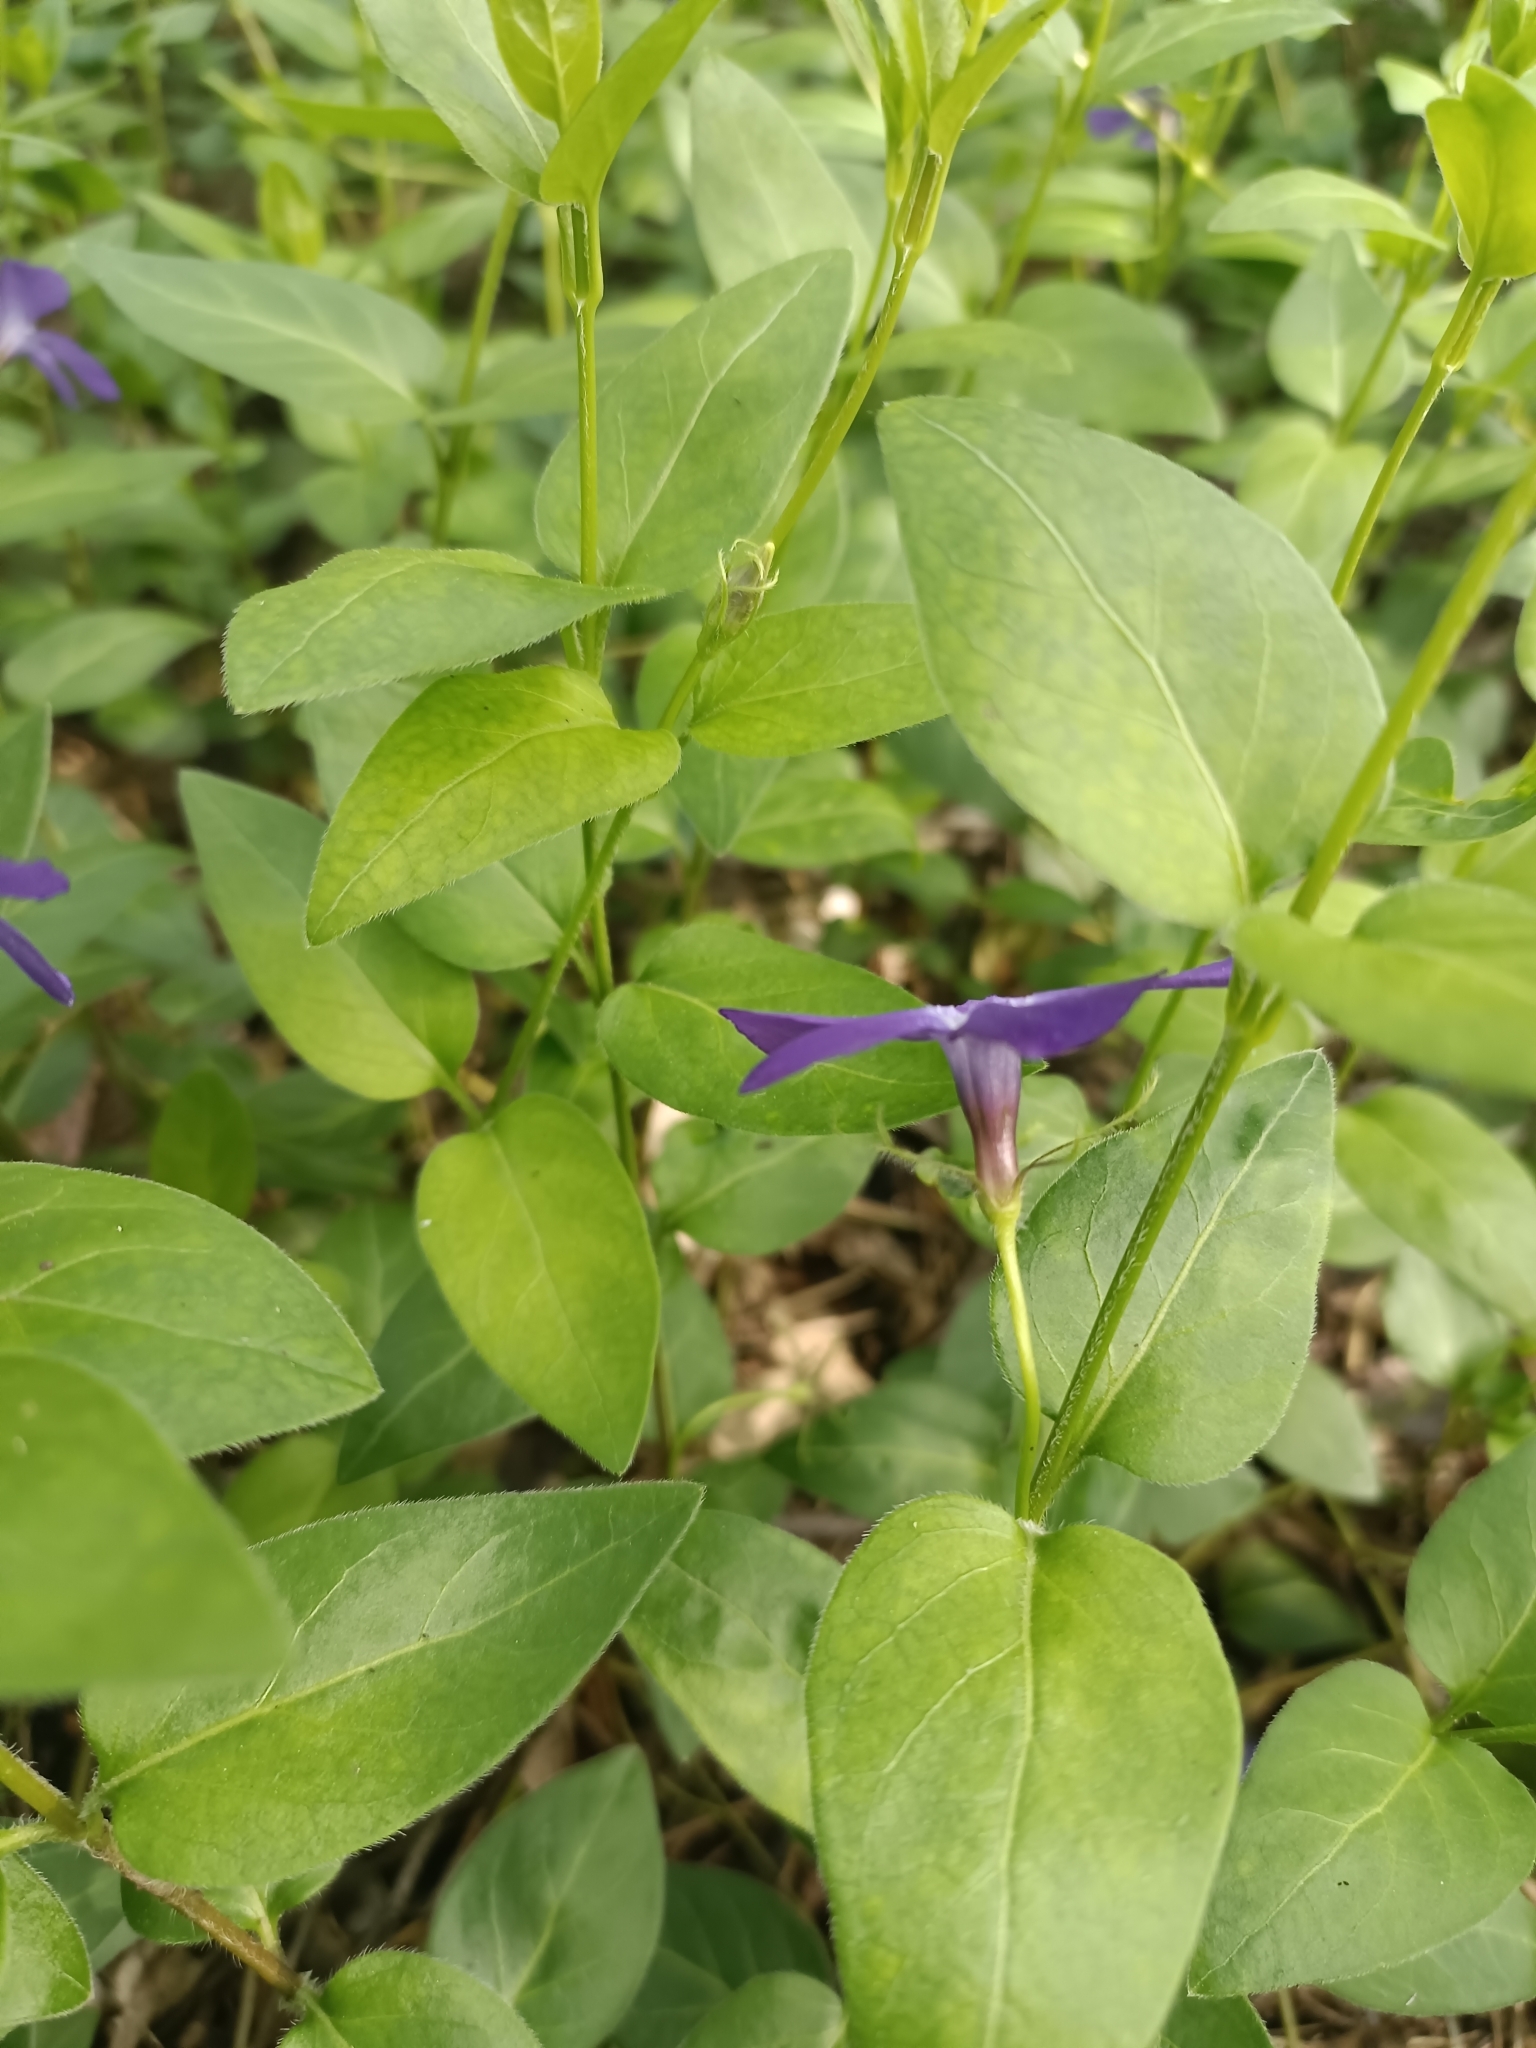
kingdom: Plantae
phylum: Tracheophyta
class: Magnoliopsida
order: Gentianales
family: Apocynaceae
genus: Vinca
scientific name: Vinca major
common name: Greater periwinkle
